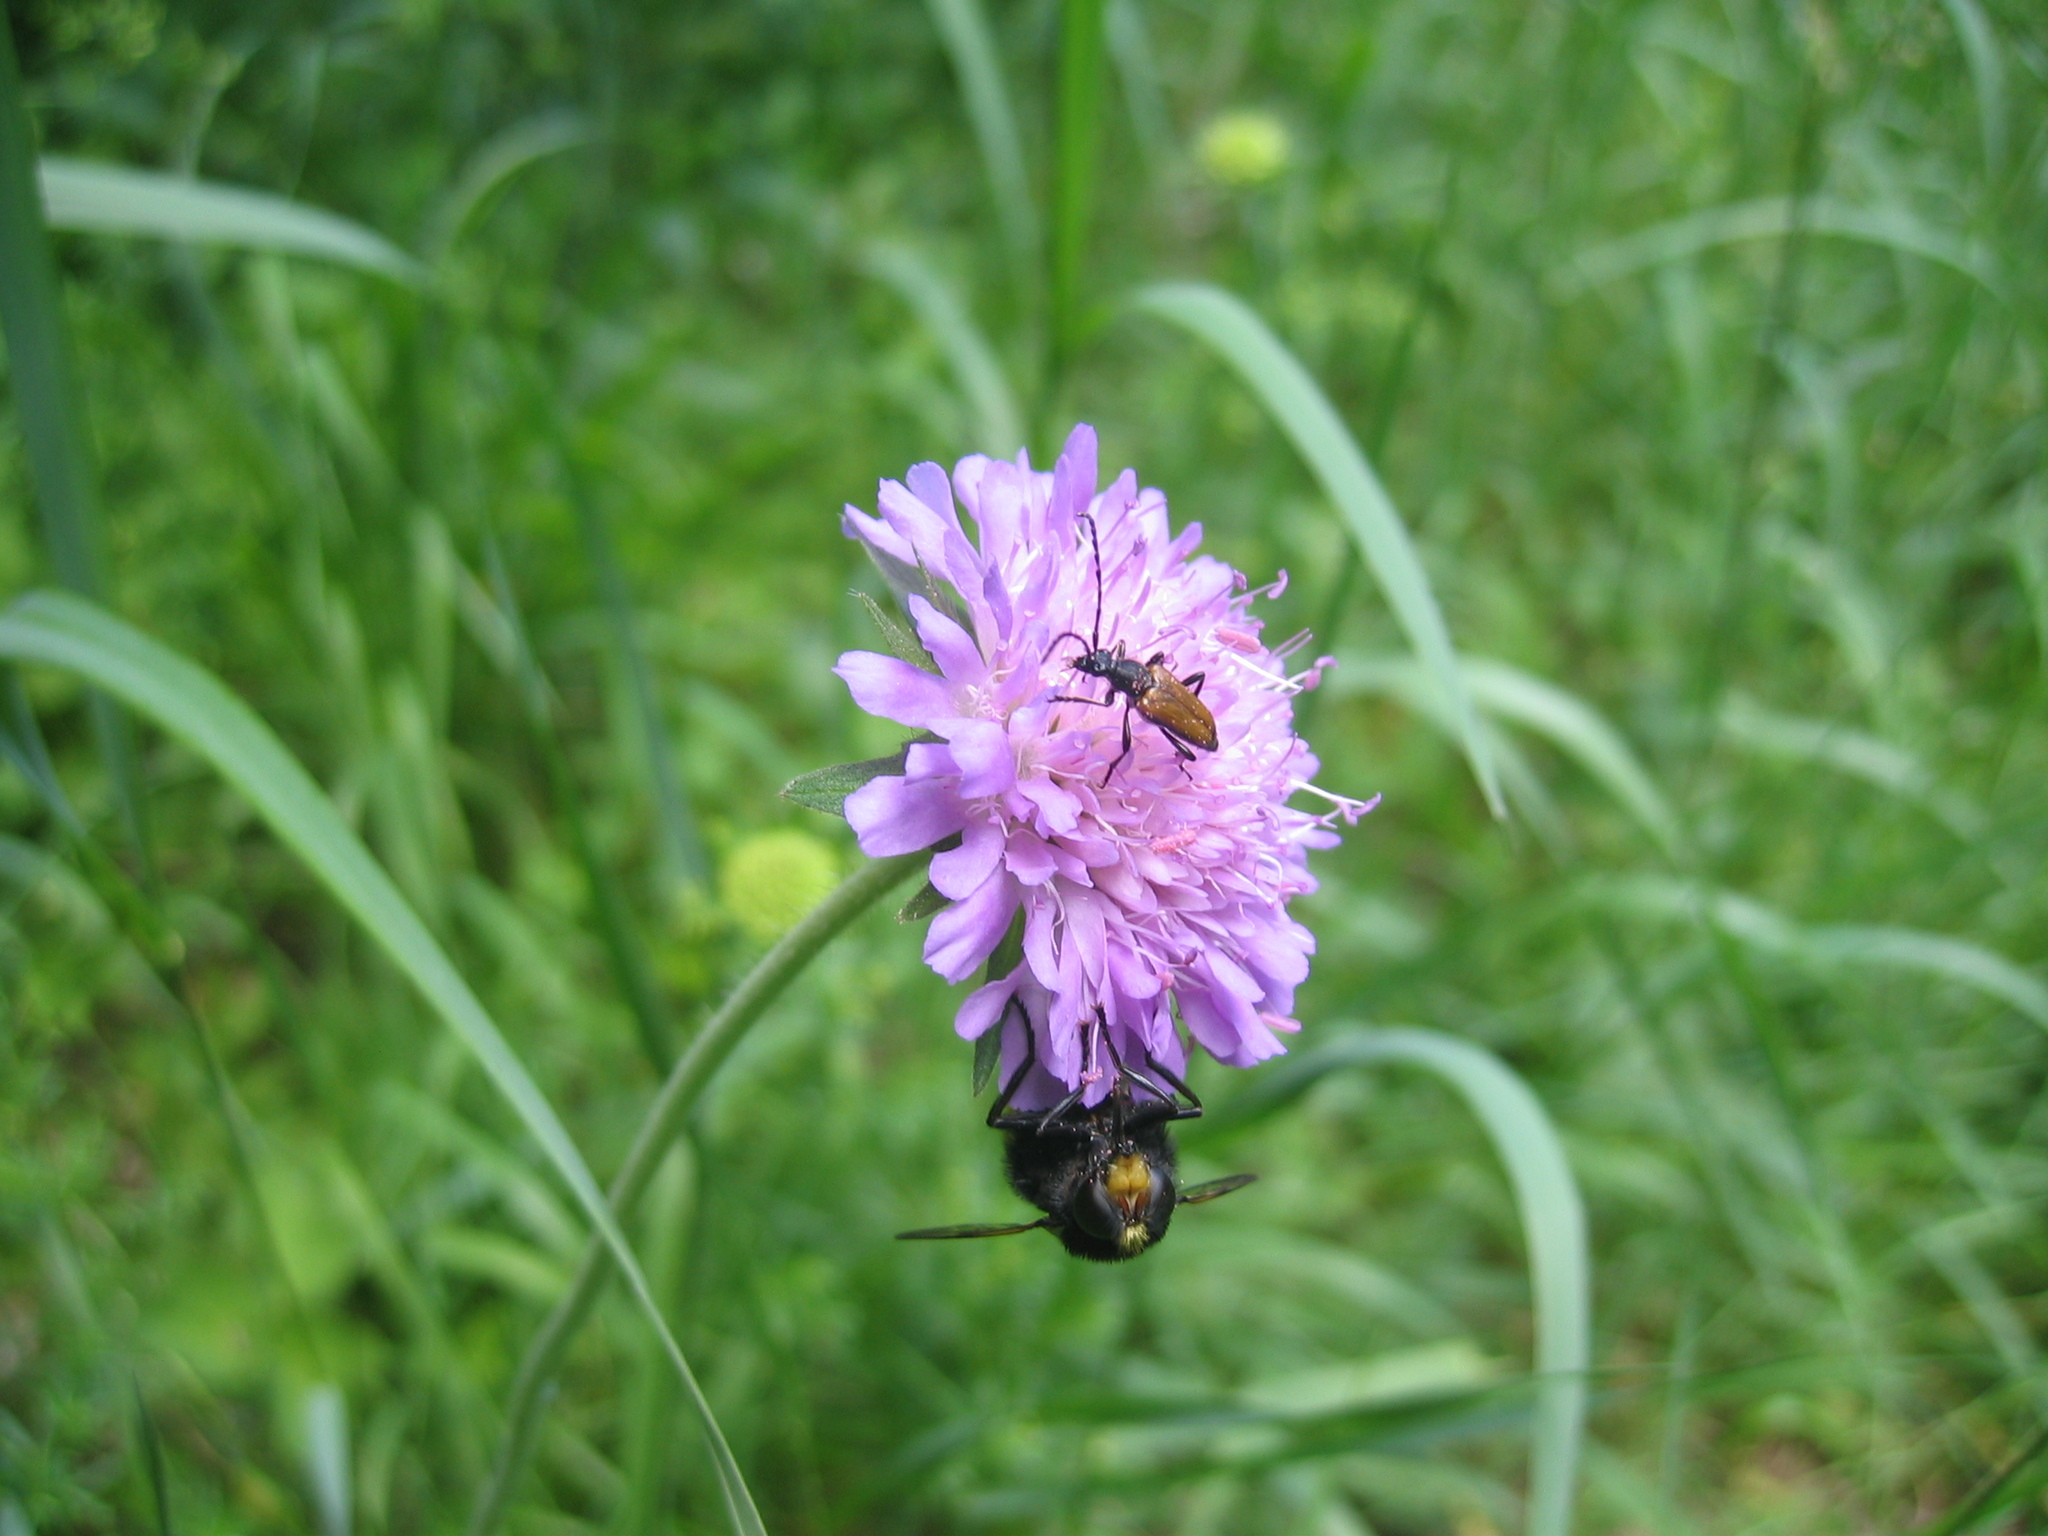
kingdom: Animalia
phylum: Arthropoda
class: Insecta
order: Diptera
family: Syrphidae
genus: Volucella
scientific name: Volucella bombylans
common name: Bumble bee hover fly
